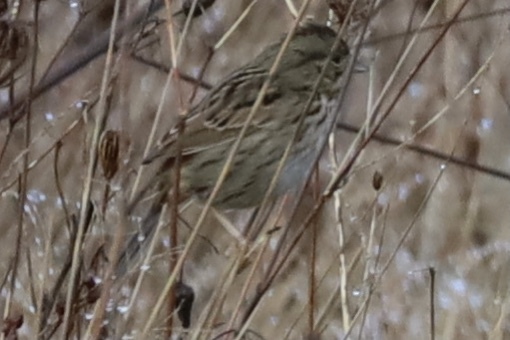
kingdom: Animalia
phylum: Chordata
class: Aves
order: Passeriformes
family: Passerellidae
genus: Melospiza
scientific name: Melospiza lincolnii
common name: Lincoln's sparrow
